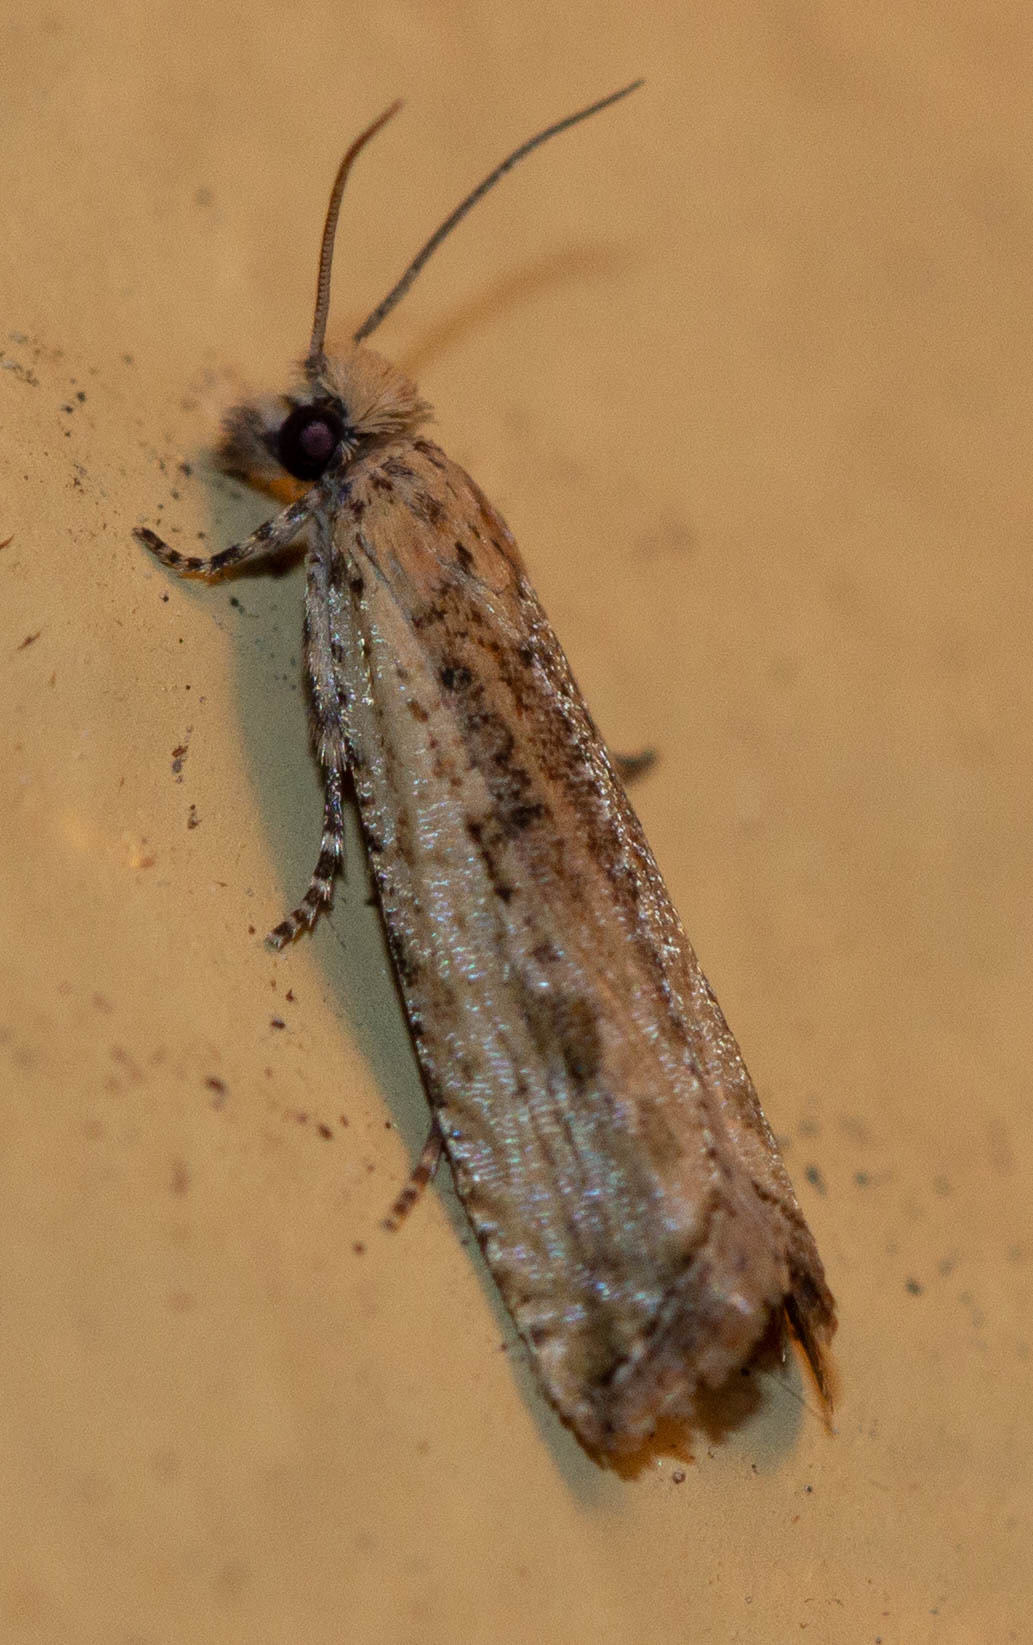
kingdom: Animalia
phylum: Arthropoda
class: Insecta
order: Lepidoptera
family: Tortricidae
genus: Bactra
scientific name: Bactra verutana
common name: Javelin moth
